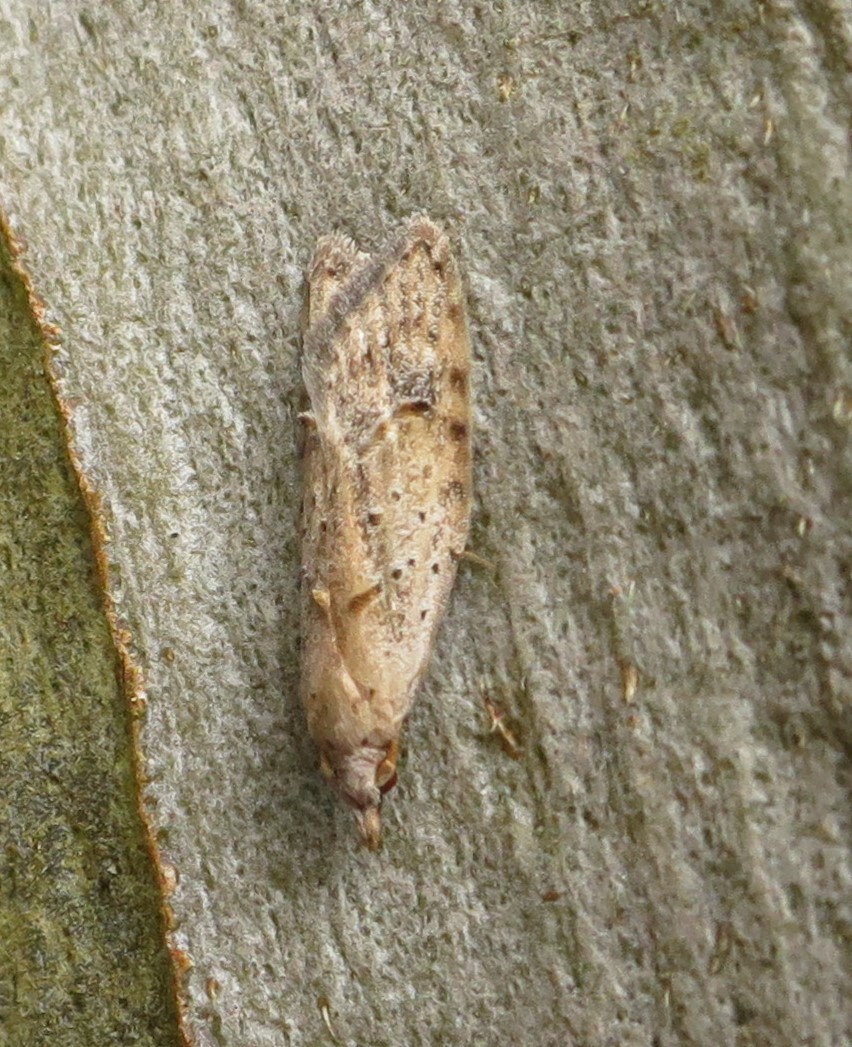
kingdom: Animalia
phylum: Arthropoda
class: Insecta
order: Lepidoptera
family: Carposinidae
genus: Carposina
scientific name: Carposina rubophaga
